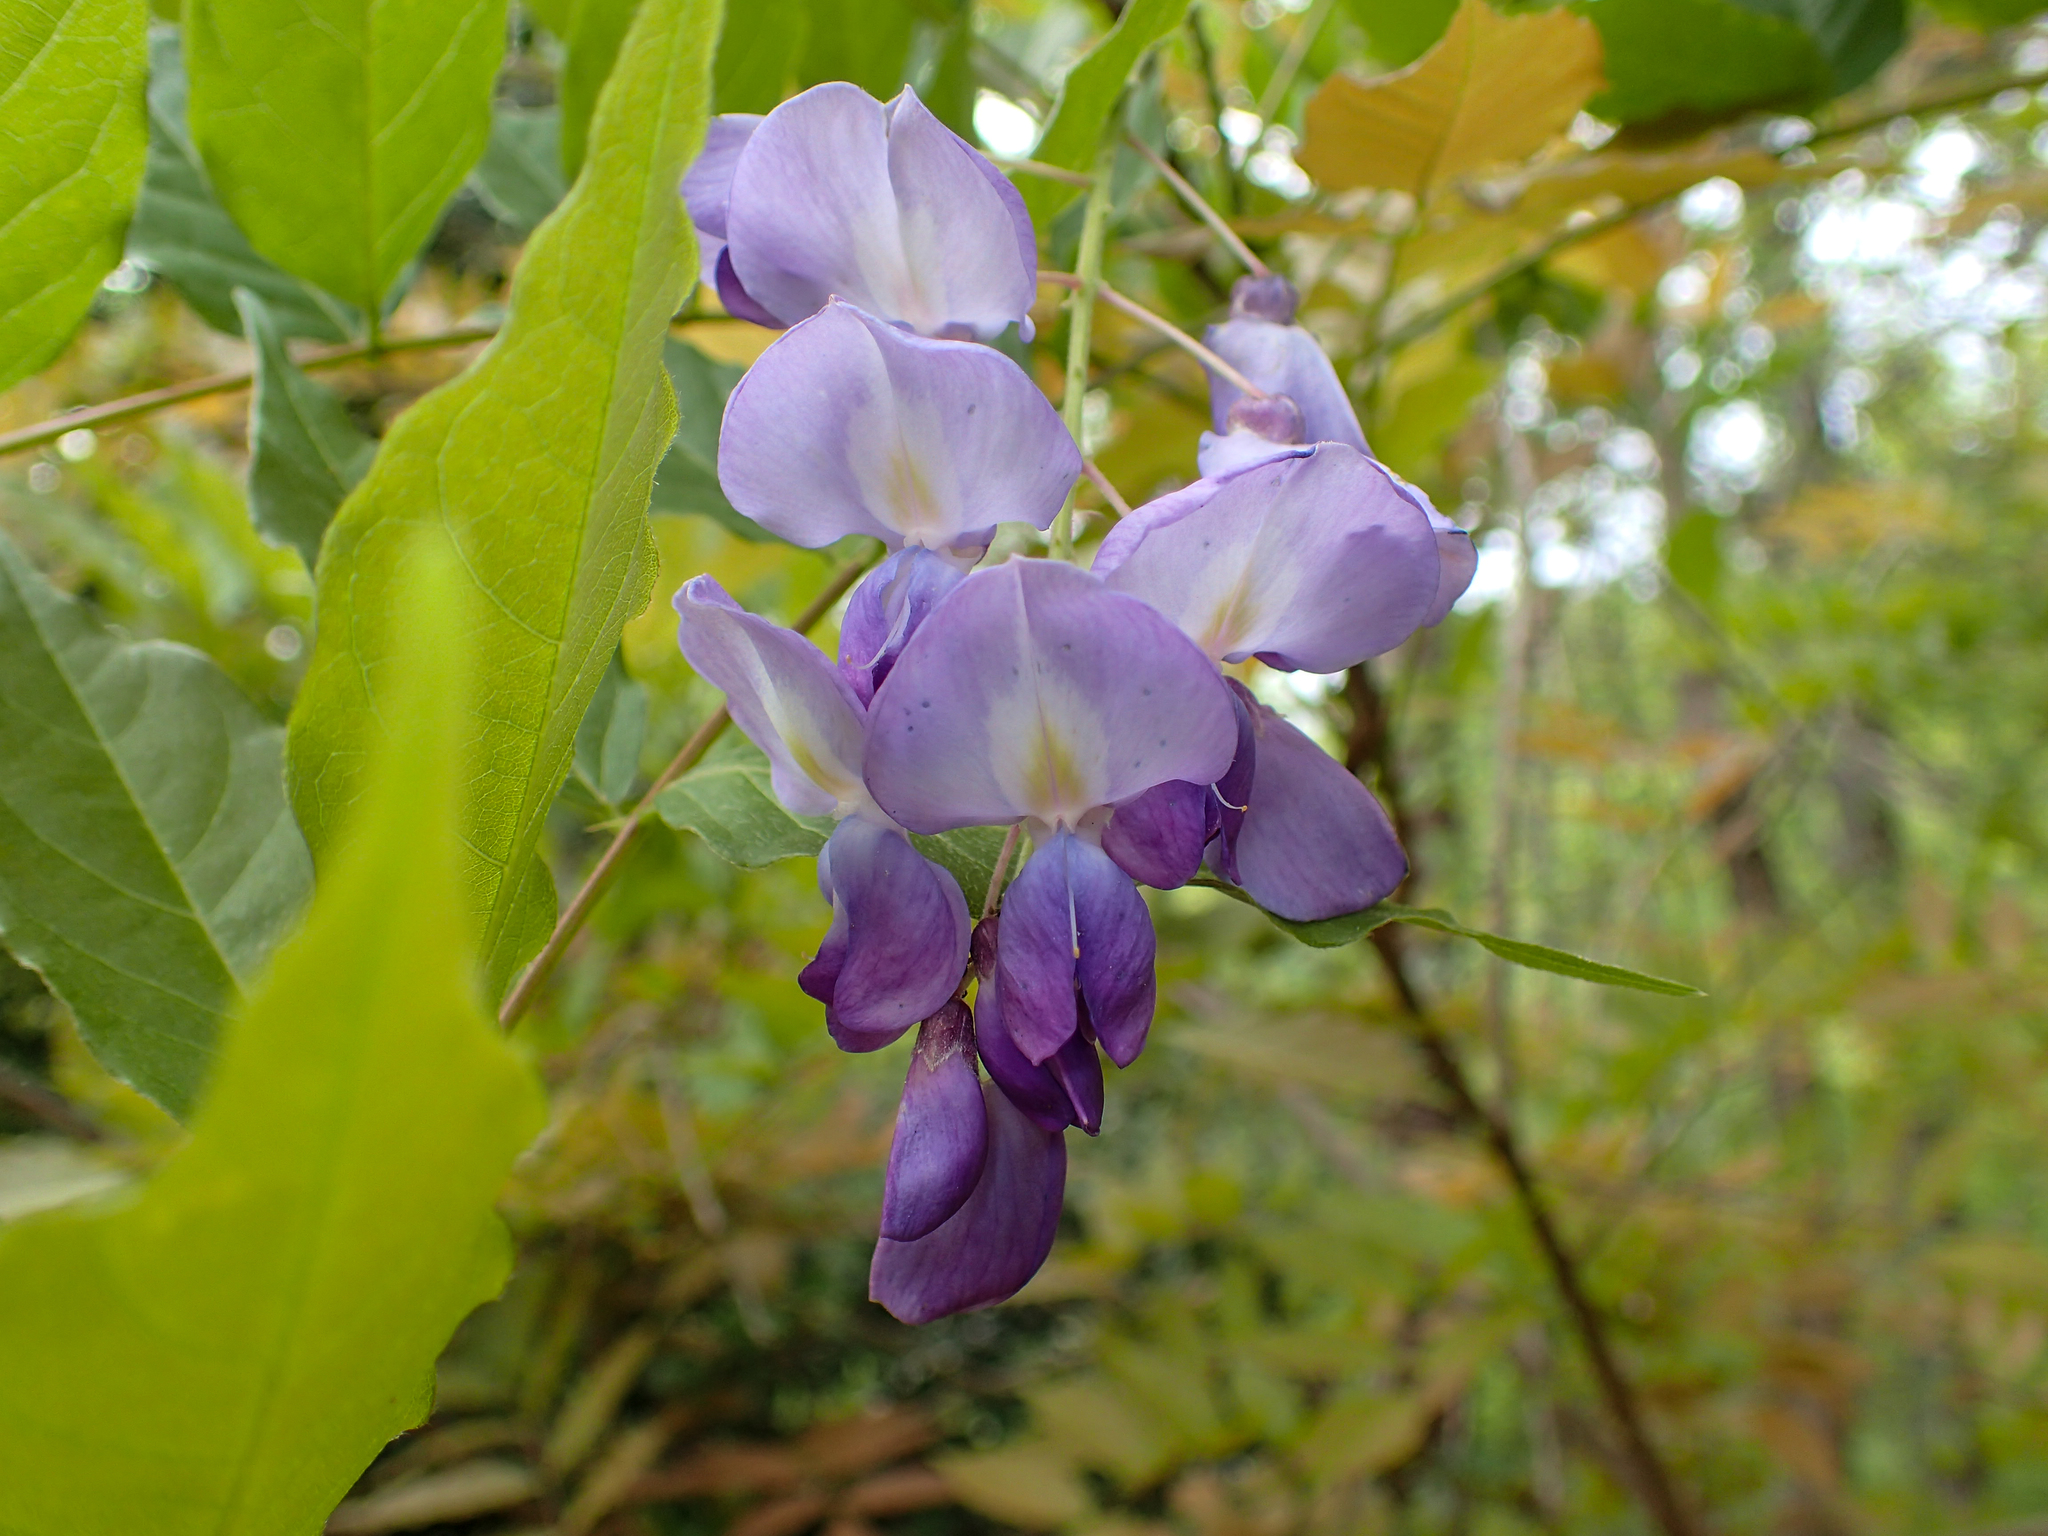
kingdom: Plantae
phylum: Tracheophyta
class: Magnoliopsida
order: Fabales
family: Fabaceae
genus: Wisteria
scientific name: Wisteria sinensis
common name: Chinese wisteria
